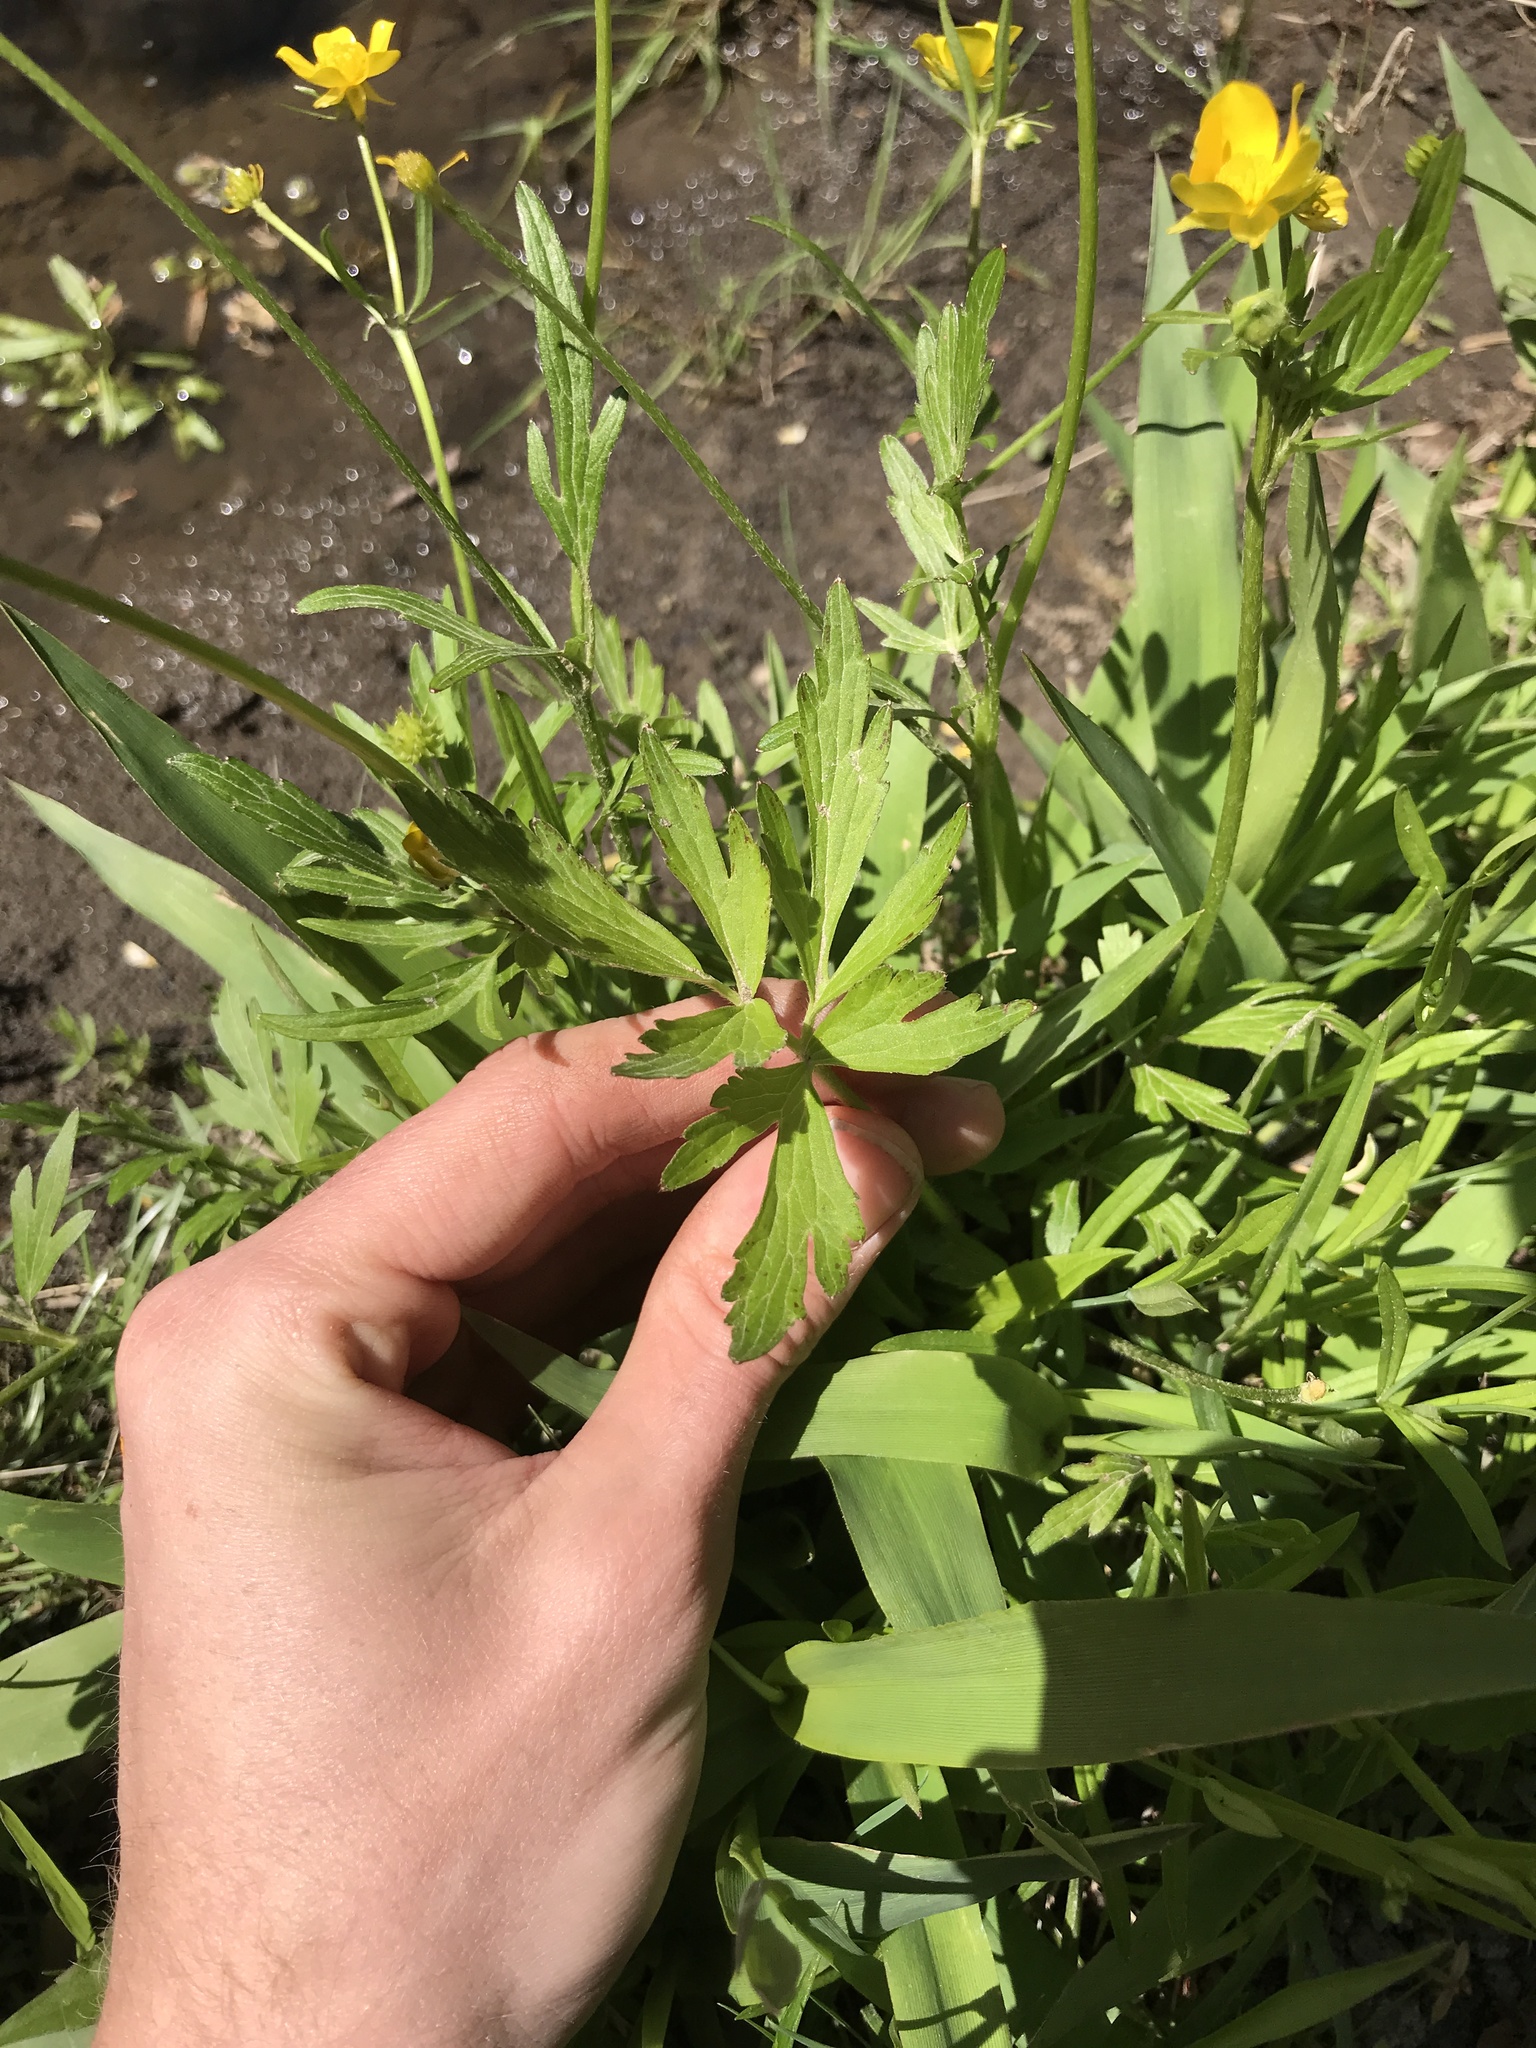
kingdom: Plantae
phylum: Tracheophyta
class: Magnoliopsida
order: Ranunculales
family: Ranunculaceae
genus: Ranunculus
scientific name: Ranunculus hispidus
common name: Bristly buttercup
